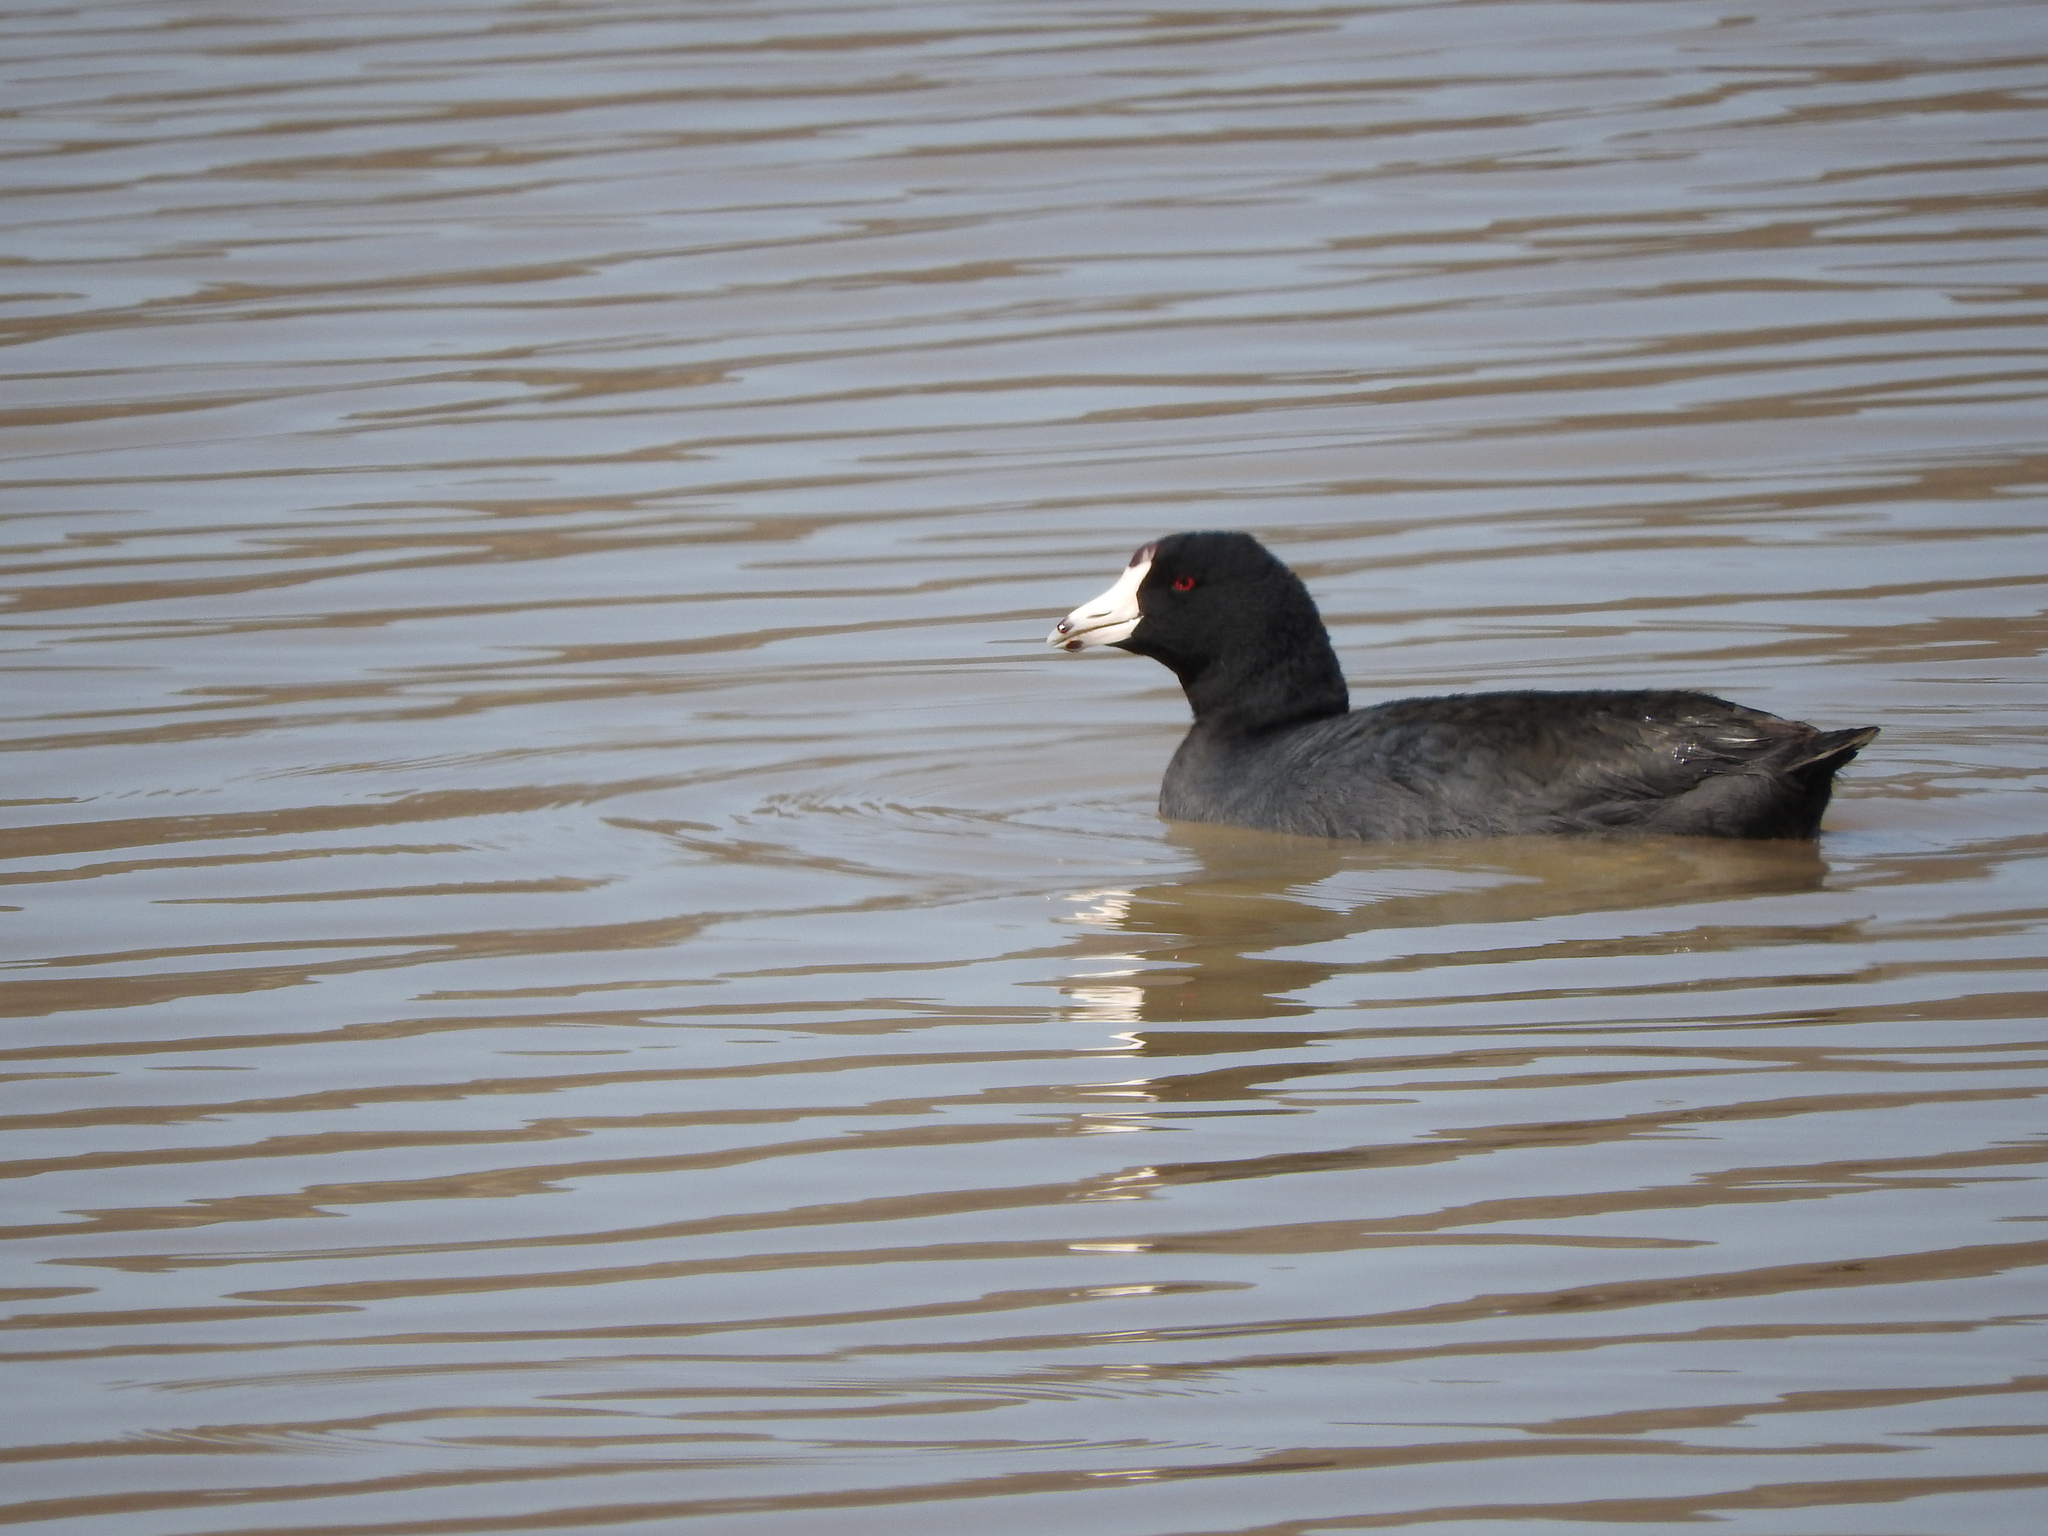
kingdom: Animalia
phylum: Chordata
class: Aves
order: Gruiformes
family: Rallidae
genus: Fulica
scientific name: Fulica americana
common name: American coot
